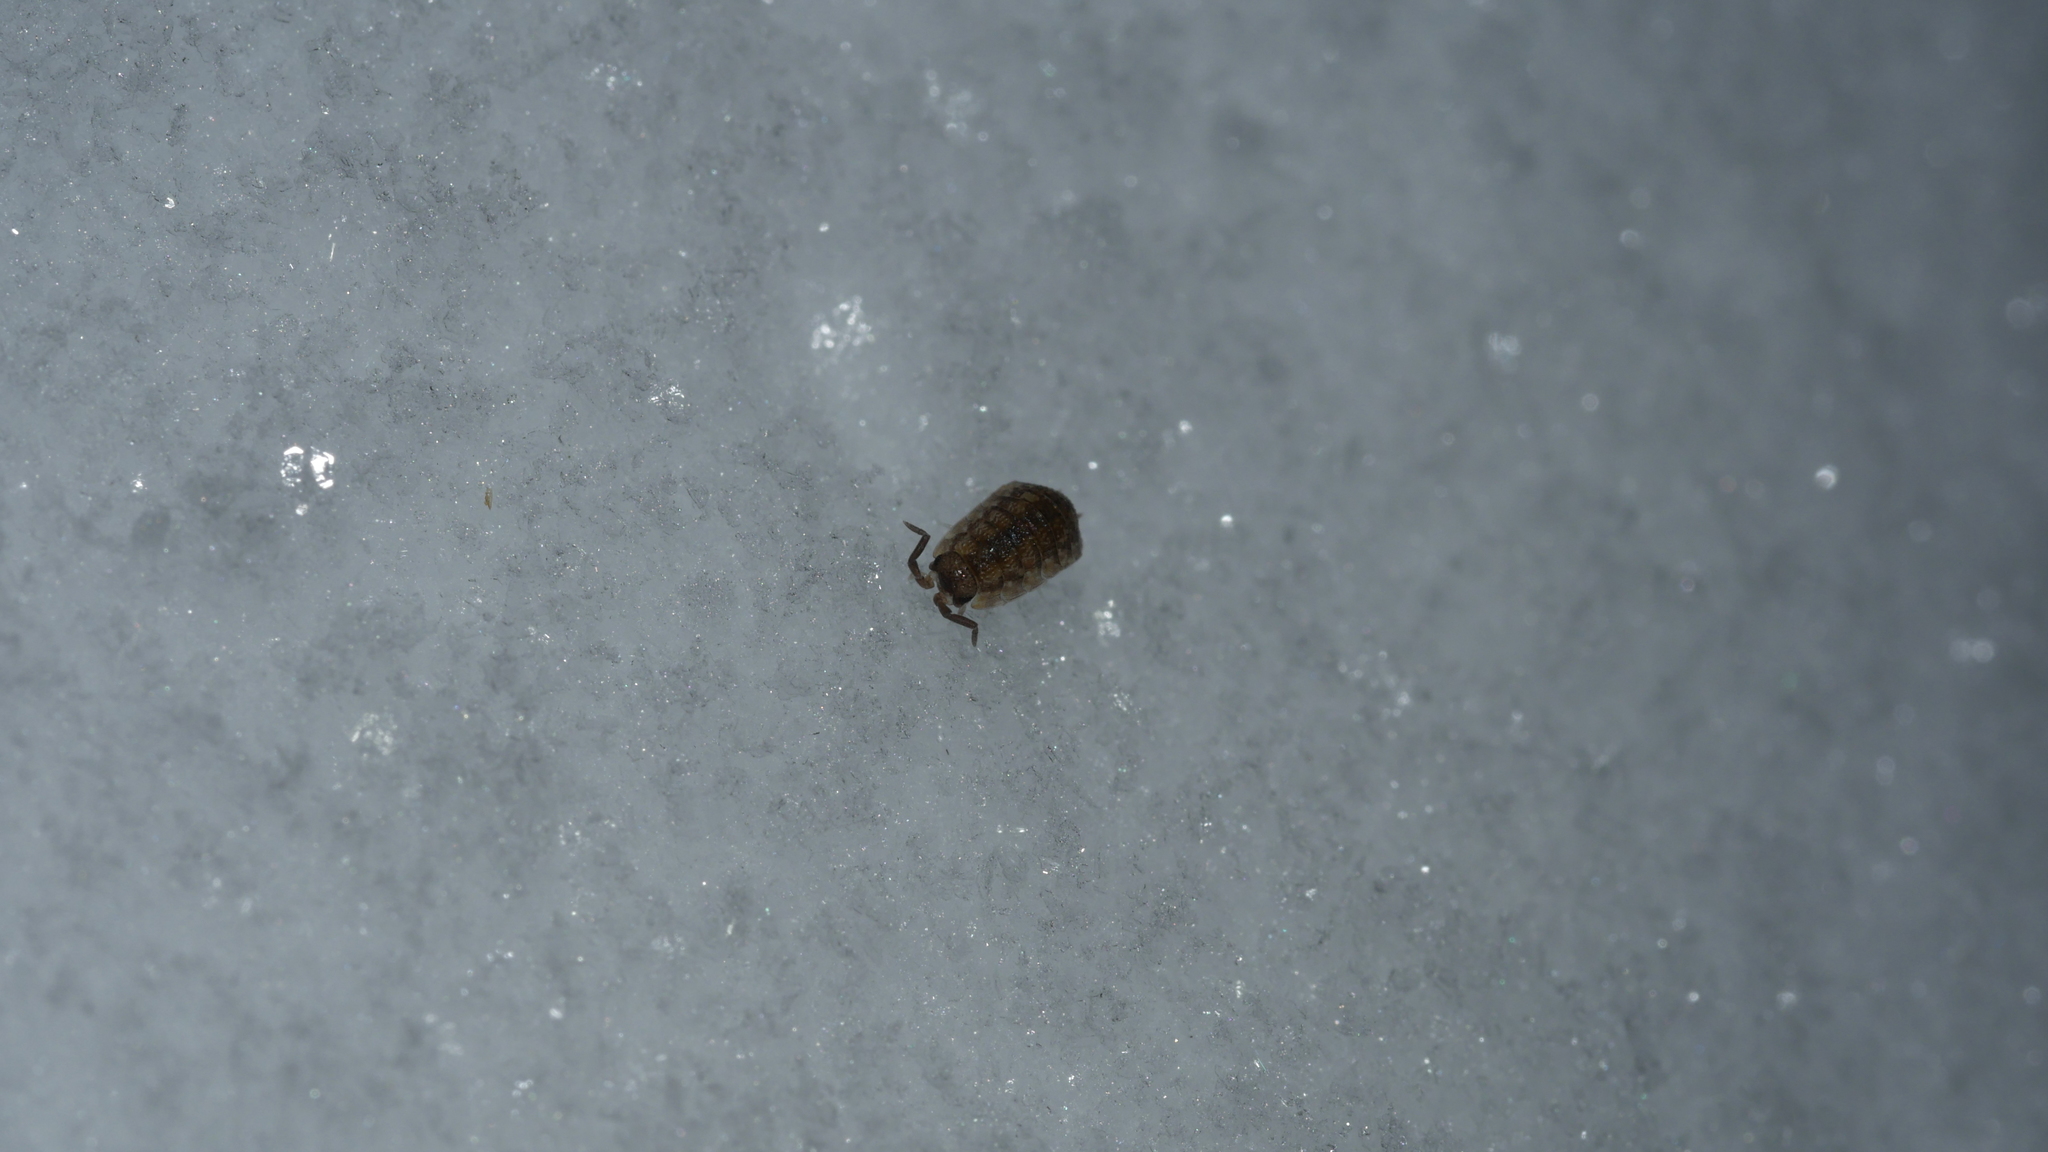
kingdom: Animalia
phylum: Arthropoda
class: Malacostraca
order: Isopoda
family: Porcellionidae
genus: Porcellio
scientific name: Porcellio scaber
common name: Common rough woodlouse
